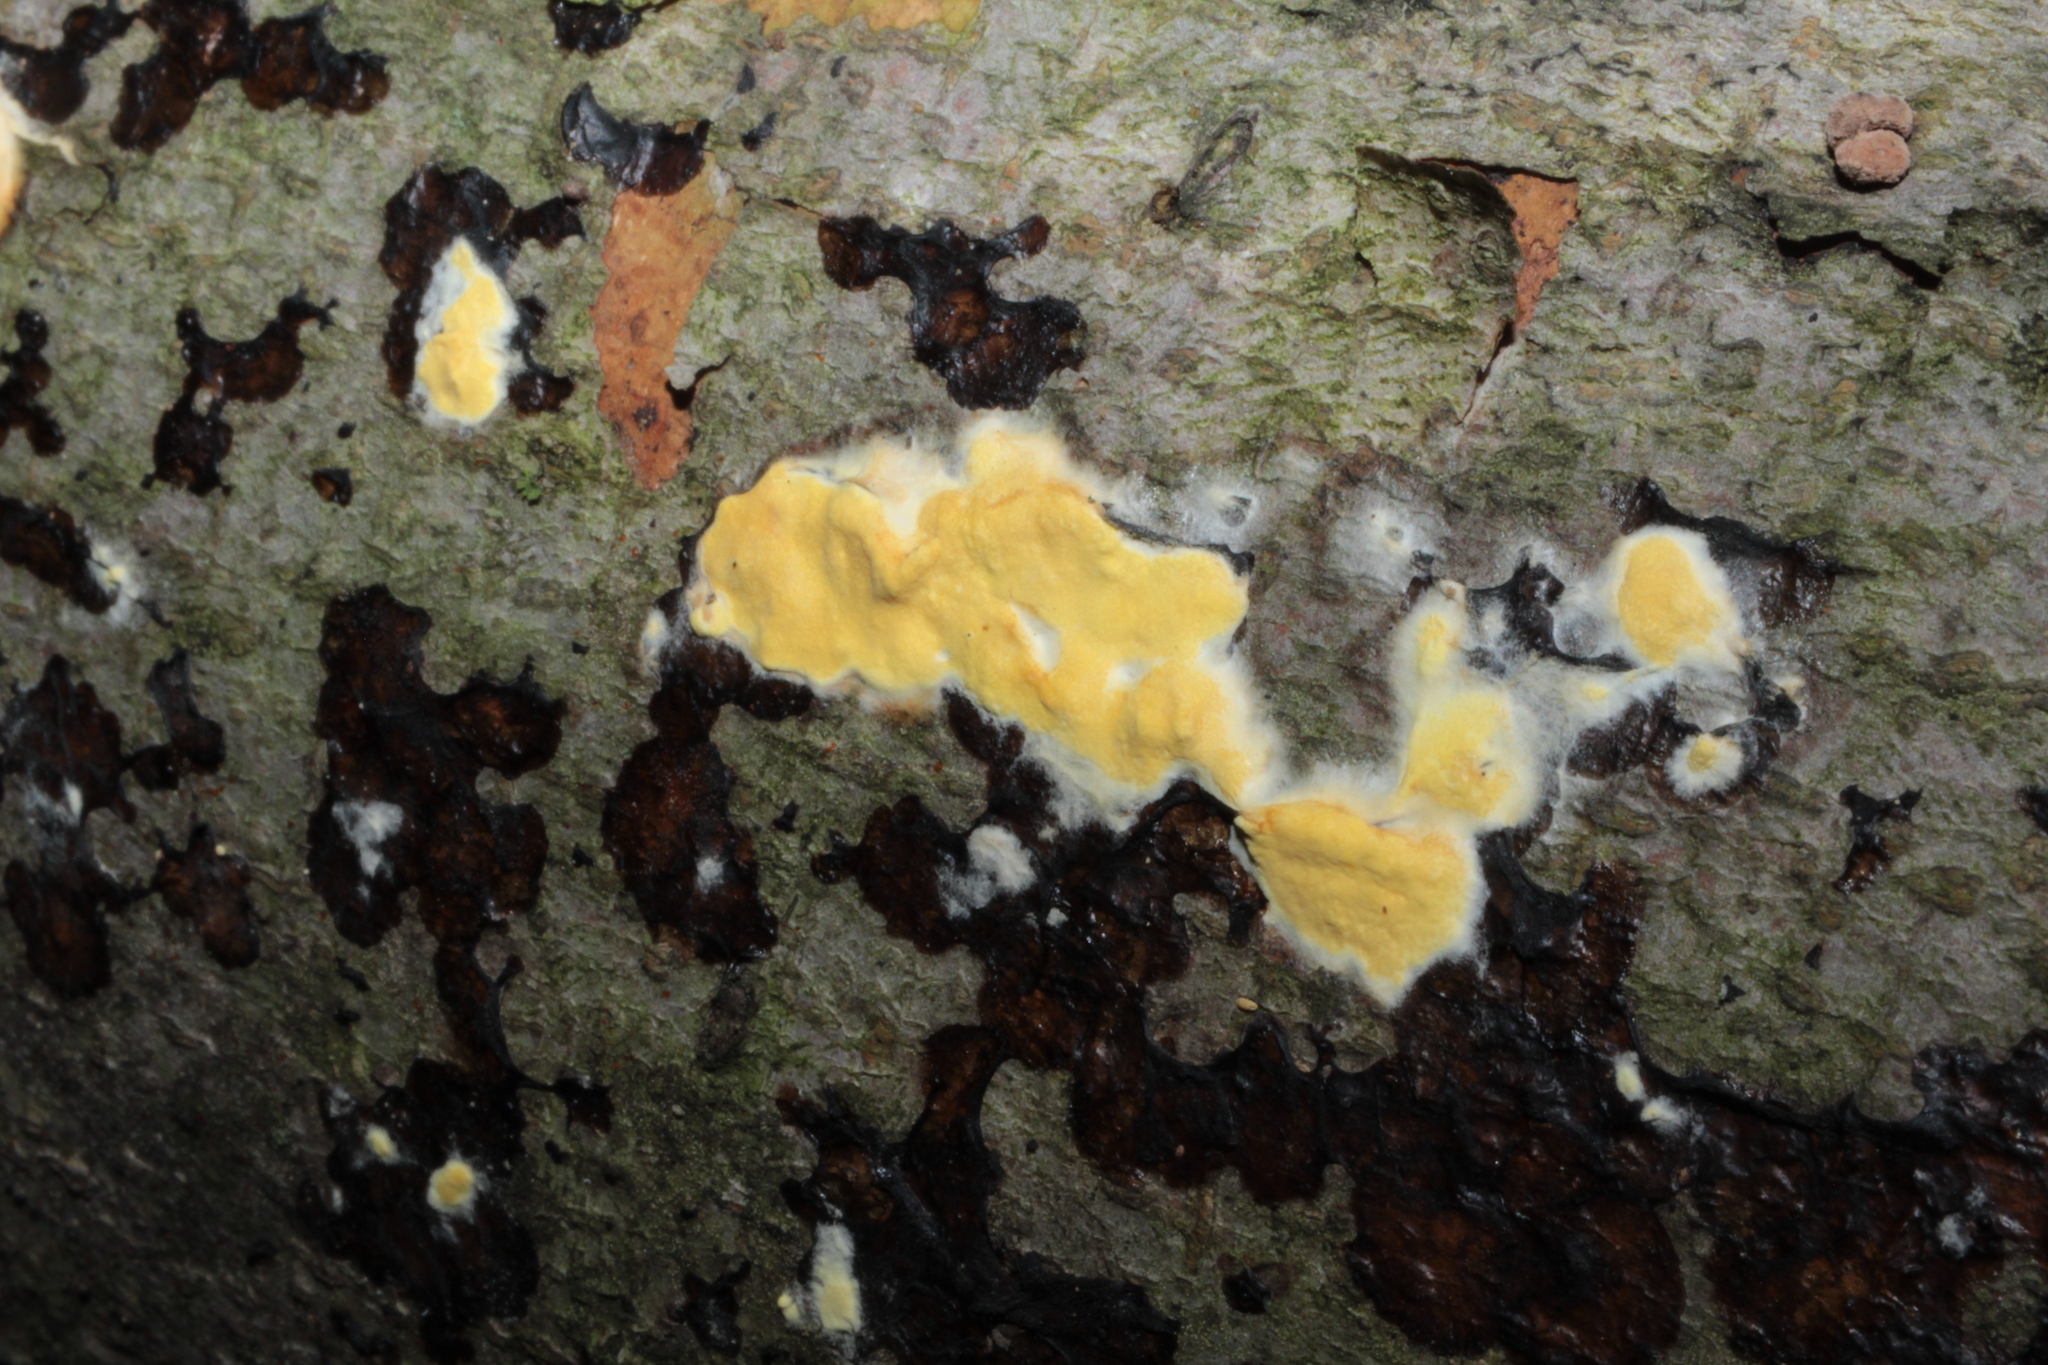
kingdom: Fungi
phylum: Ascomycota
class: Sordariomycetes
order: Hypocreales
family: Hypocreaceae
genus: Trichoderma
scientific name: Trichoderma sulphureum
